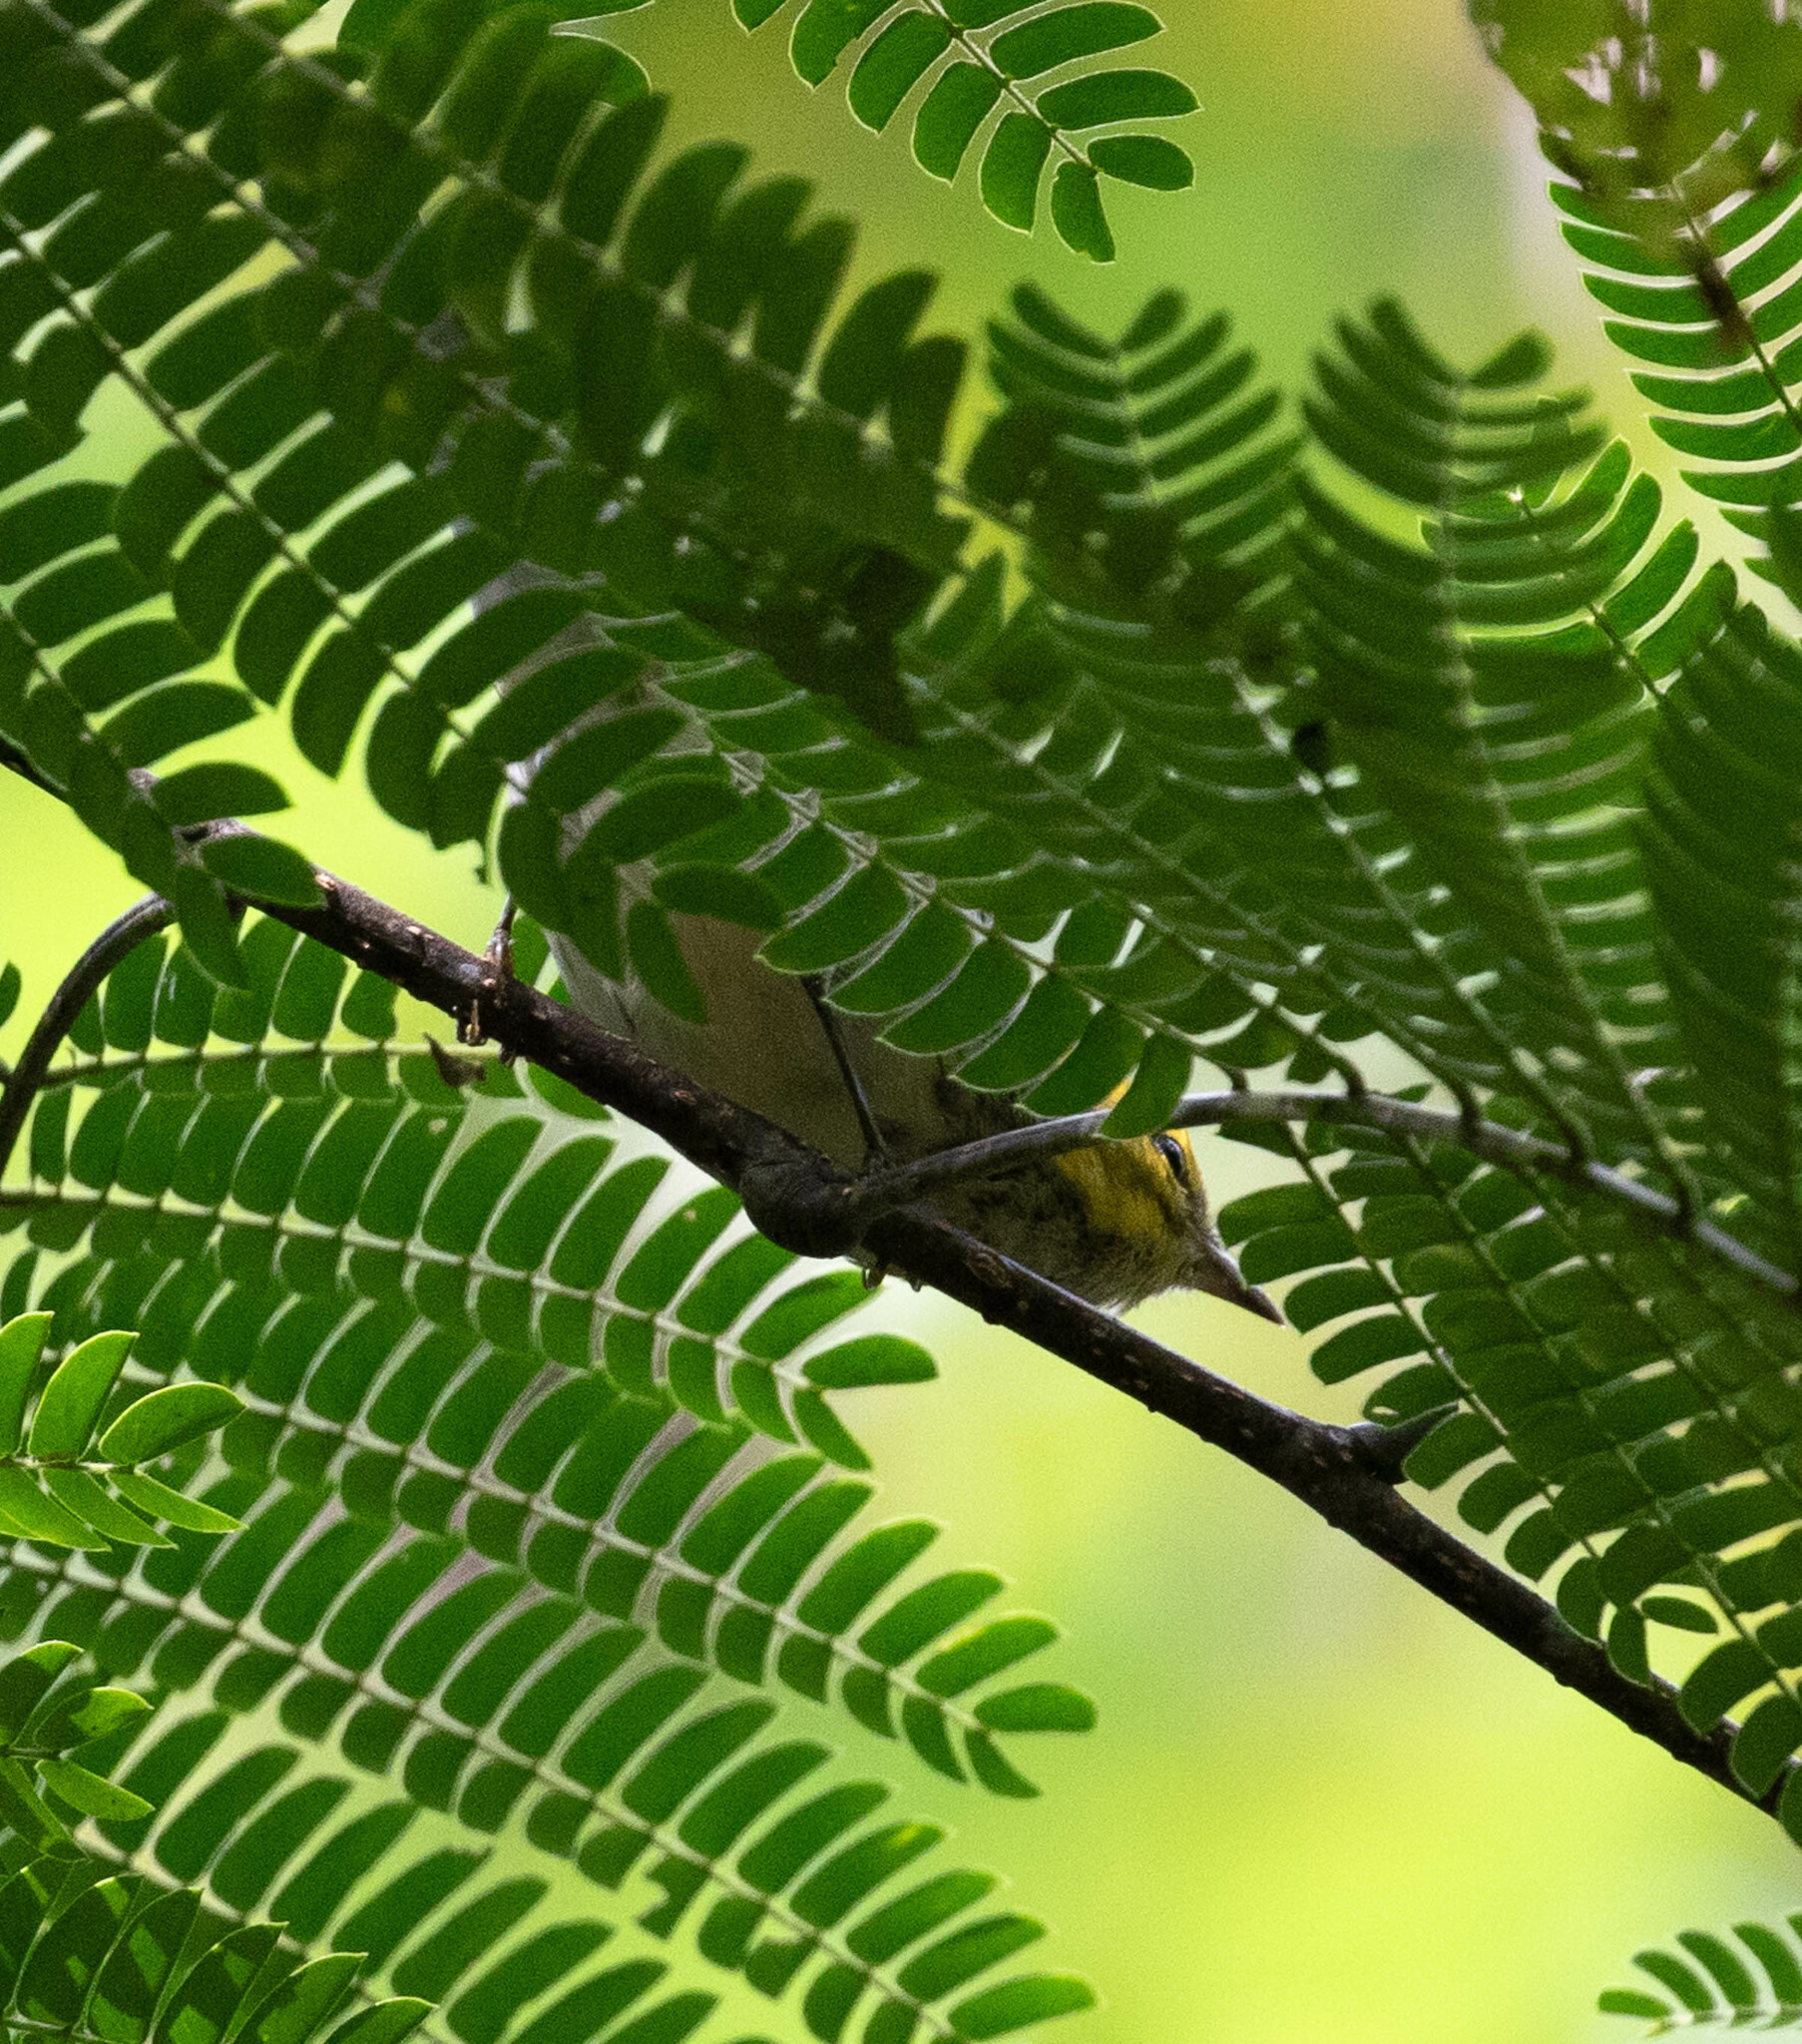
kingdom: Animalia
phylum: Chordata
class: Aves
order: Passeriformes
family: Parulidae
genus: Setophaga
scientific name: Setophaga virens
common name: Black-throated green warbler
